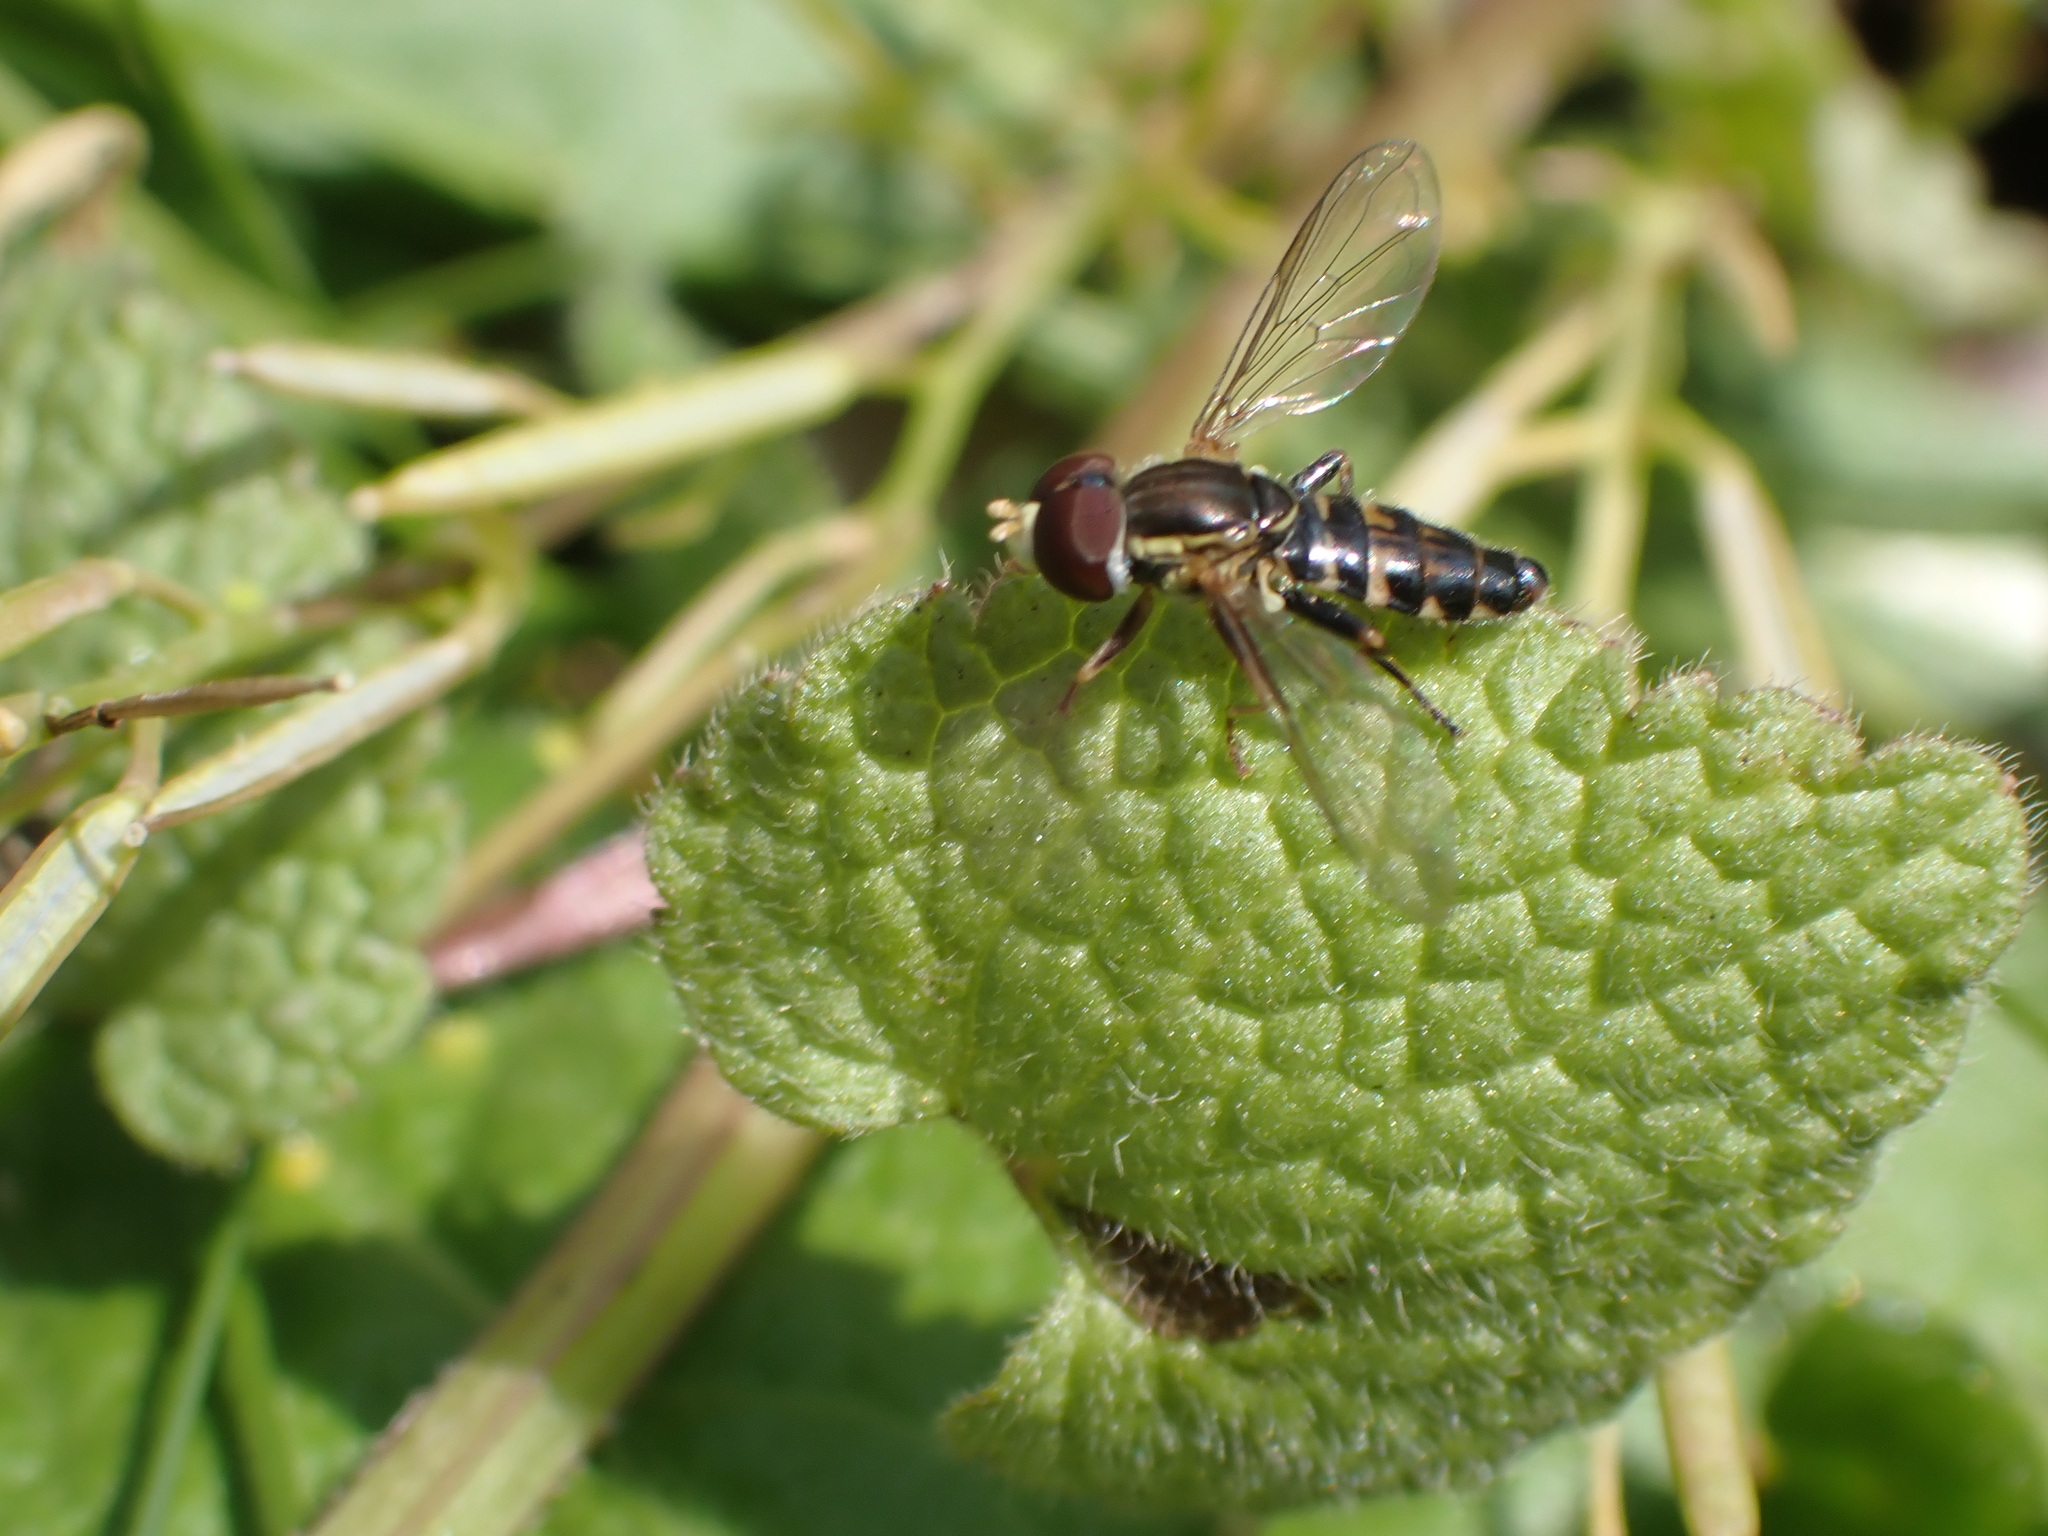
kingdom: Animalia
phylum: Arthropoda
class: Insecta
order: Diptera
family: Syrphidae
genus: Toxomerus
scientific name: Toxomerus geminatus
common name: Eastern calligrapher
